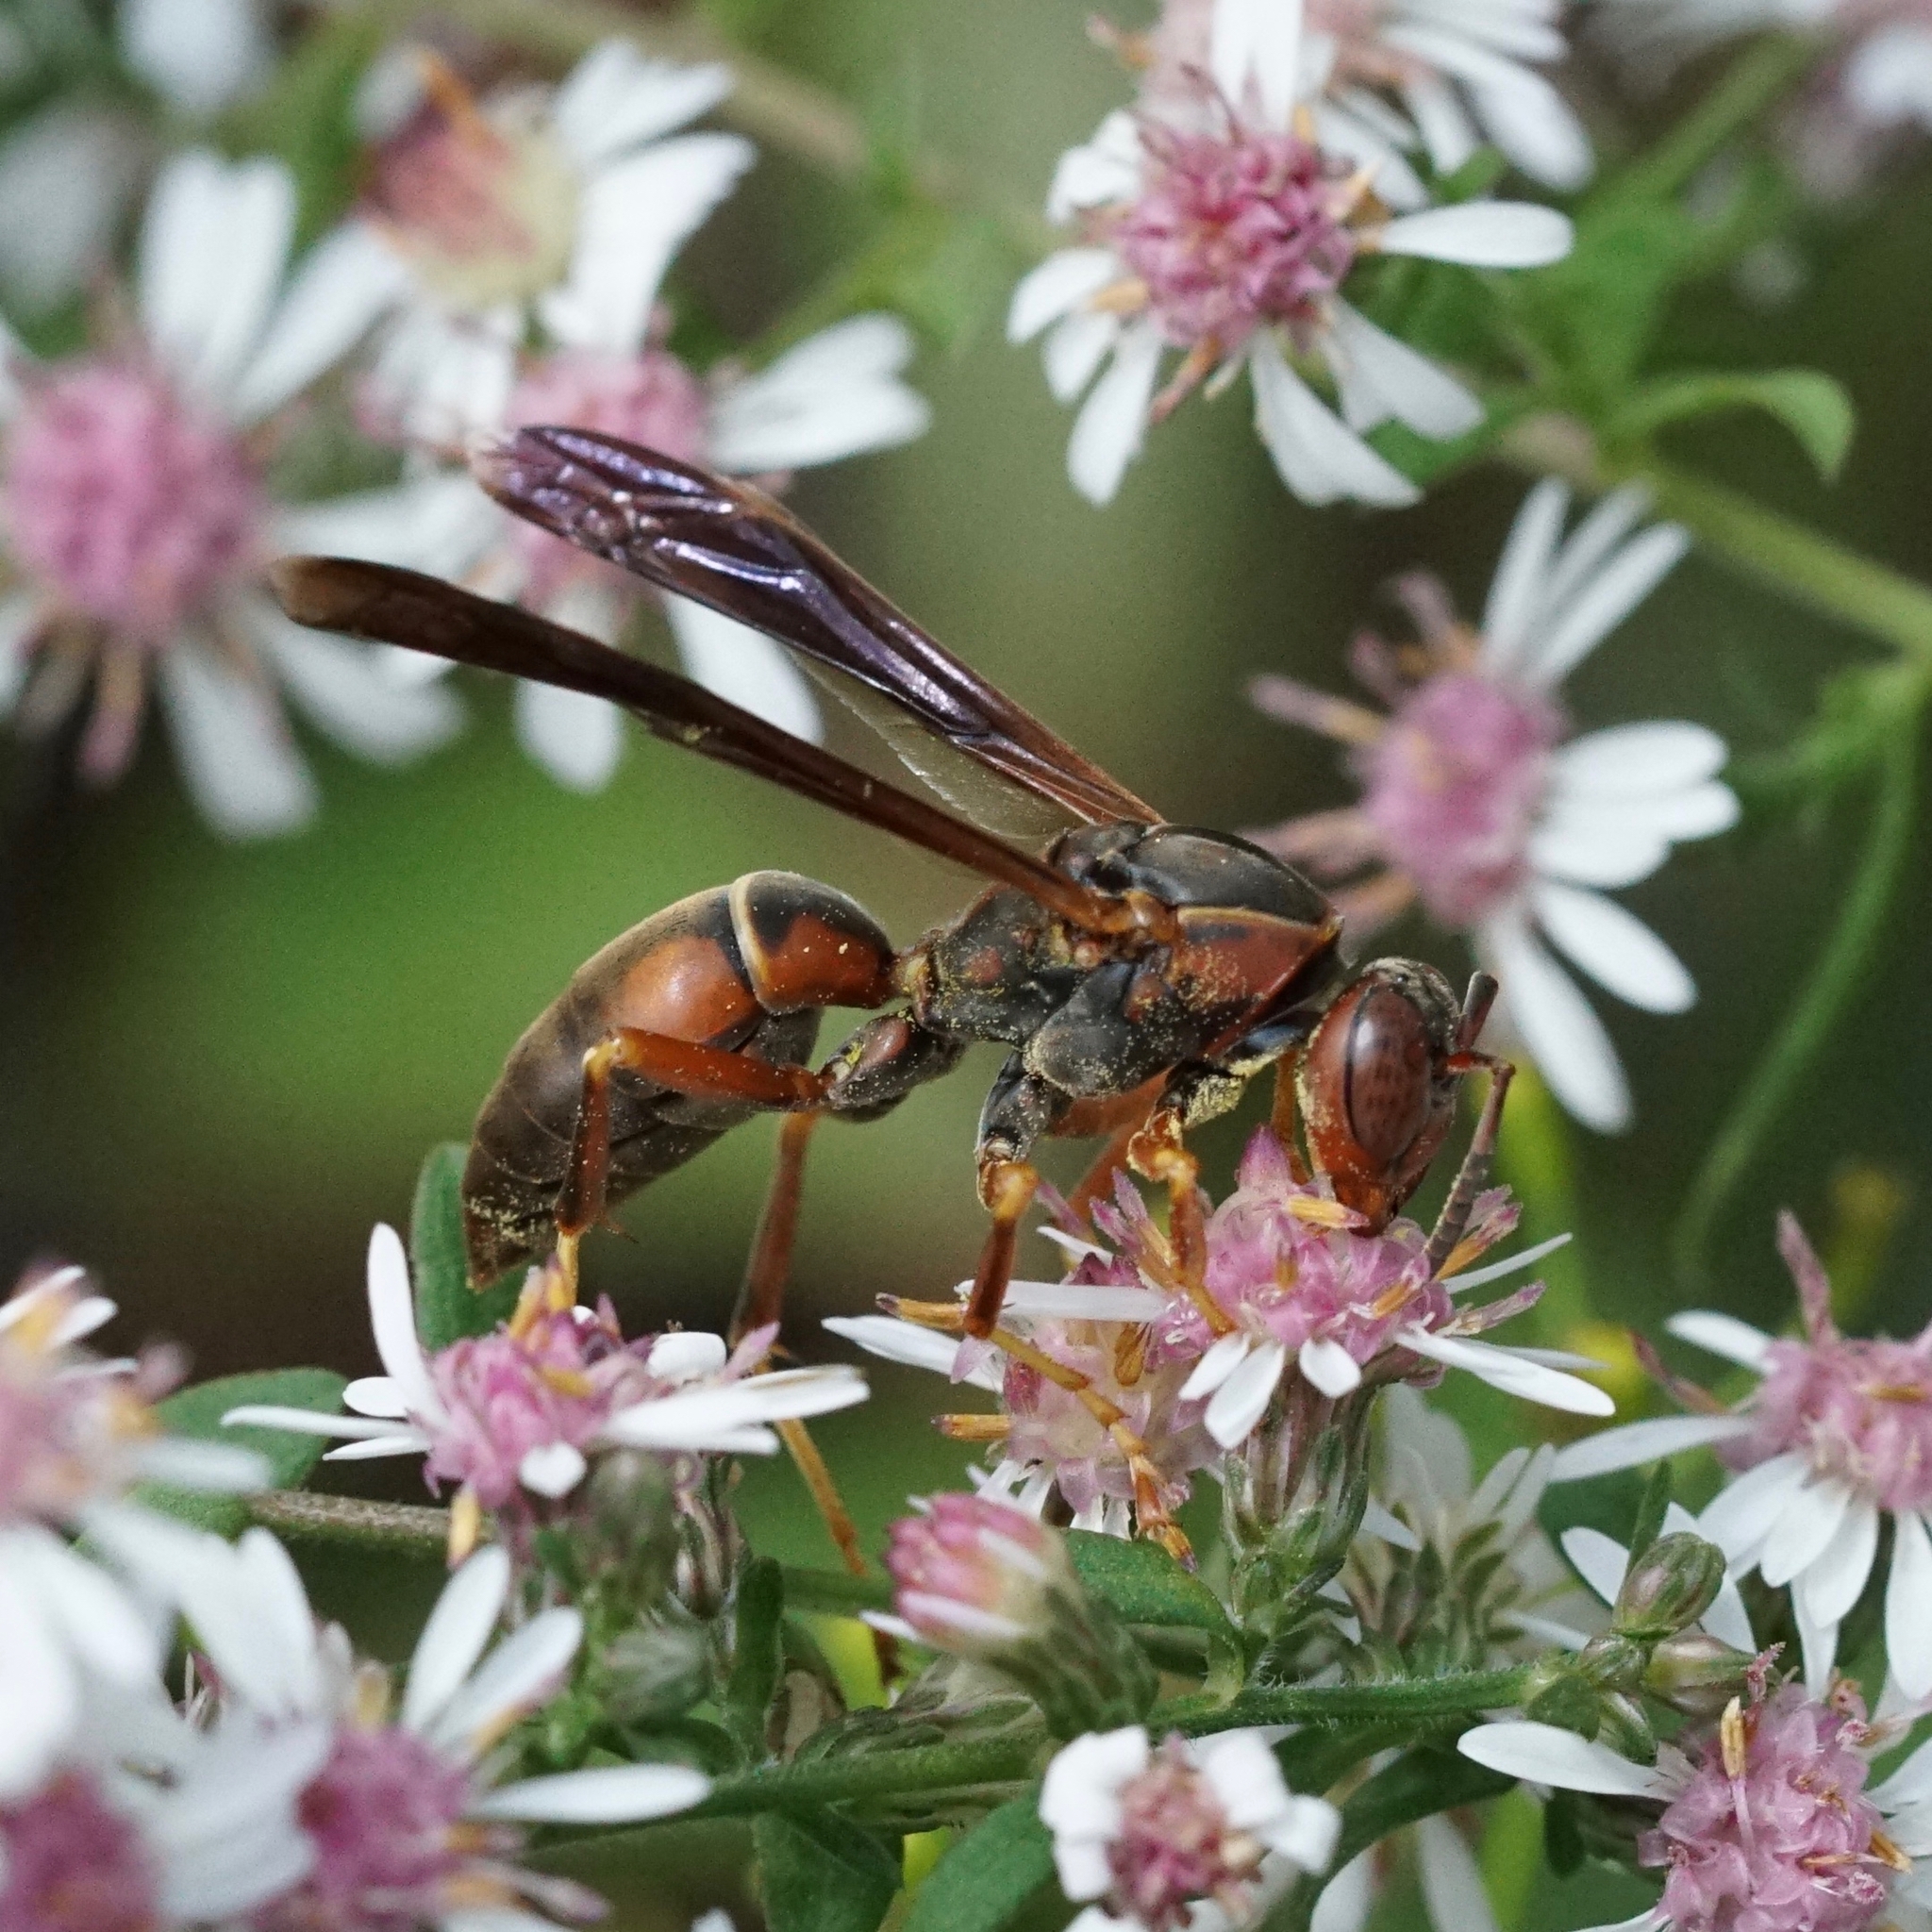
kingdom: Animalia
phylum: Arthropoda
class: Insecta
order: Hymenoptera
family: Eumenidae
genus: Polistes
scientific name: Polistes fuscatus
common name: Dark paper wasp
